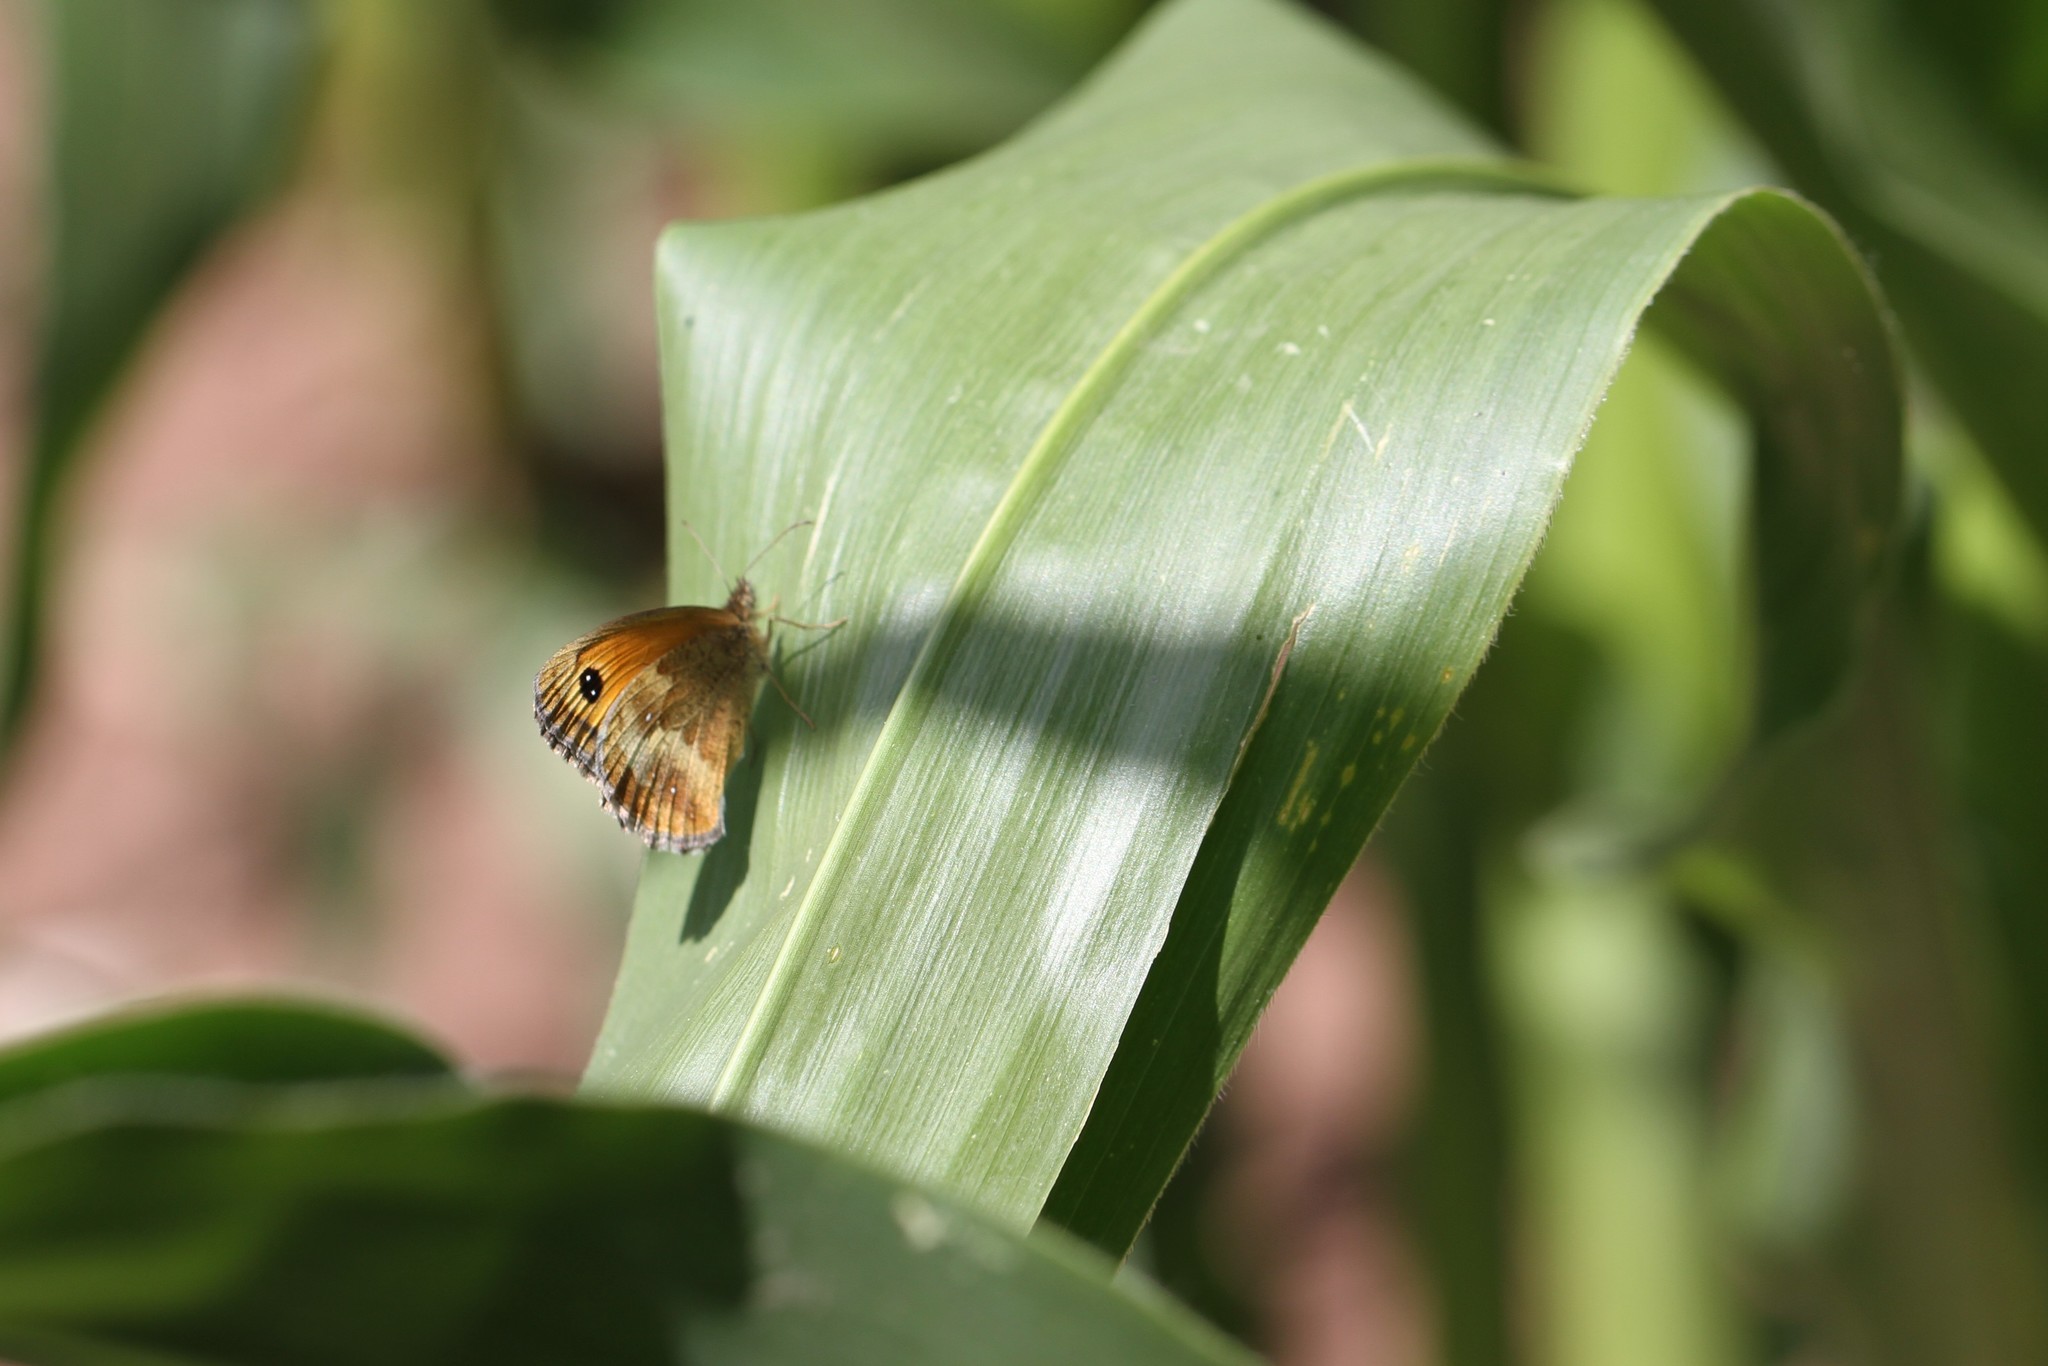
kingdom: Animalia
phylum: Arthropoda
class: Insecta
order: Lepidoptera
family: Nymphalidae
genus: Pyronia
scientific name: Pyronia tithonus
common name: Gatekeeper
